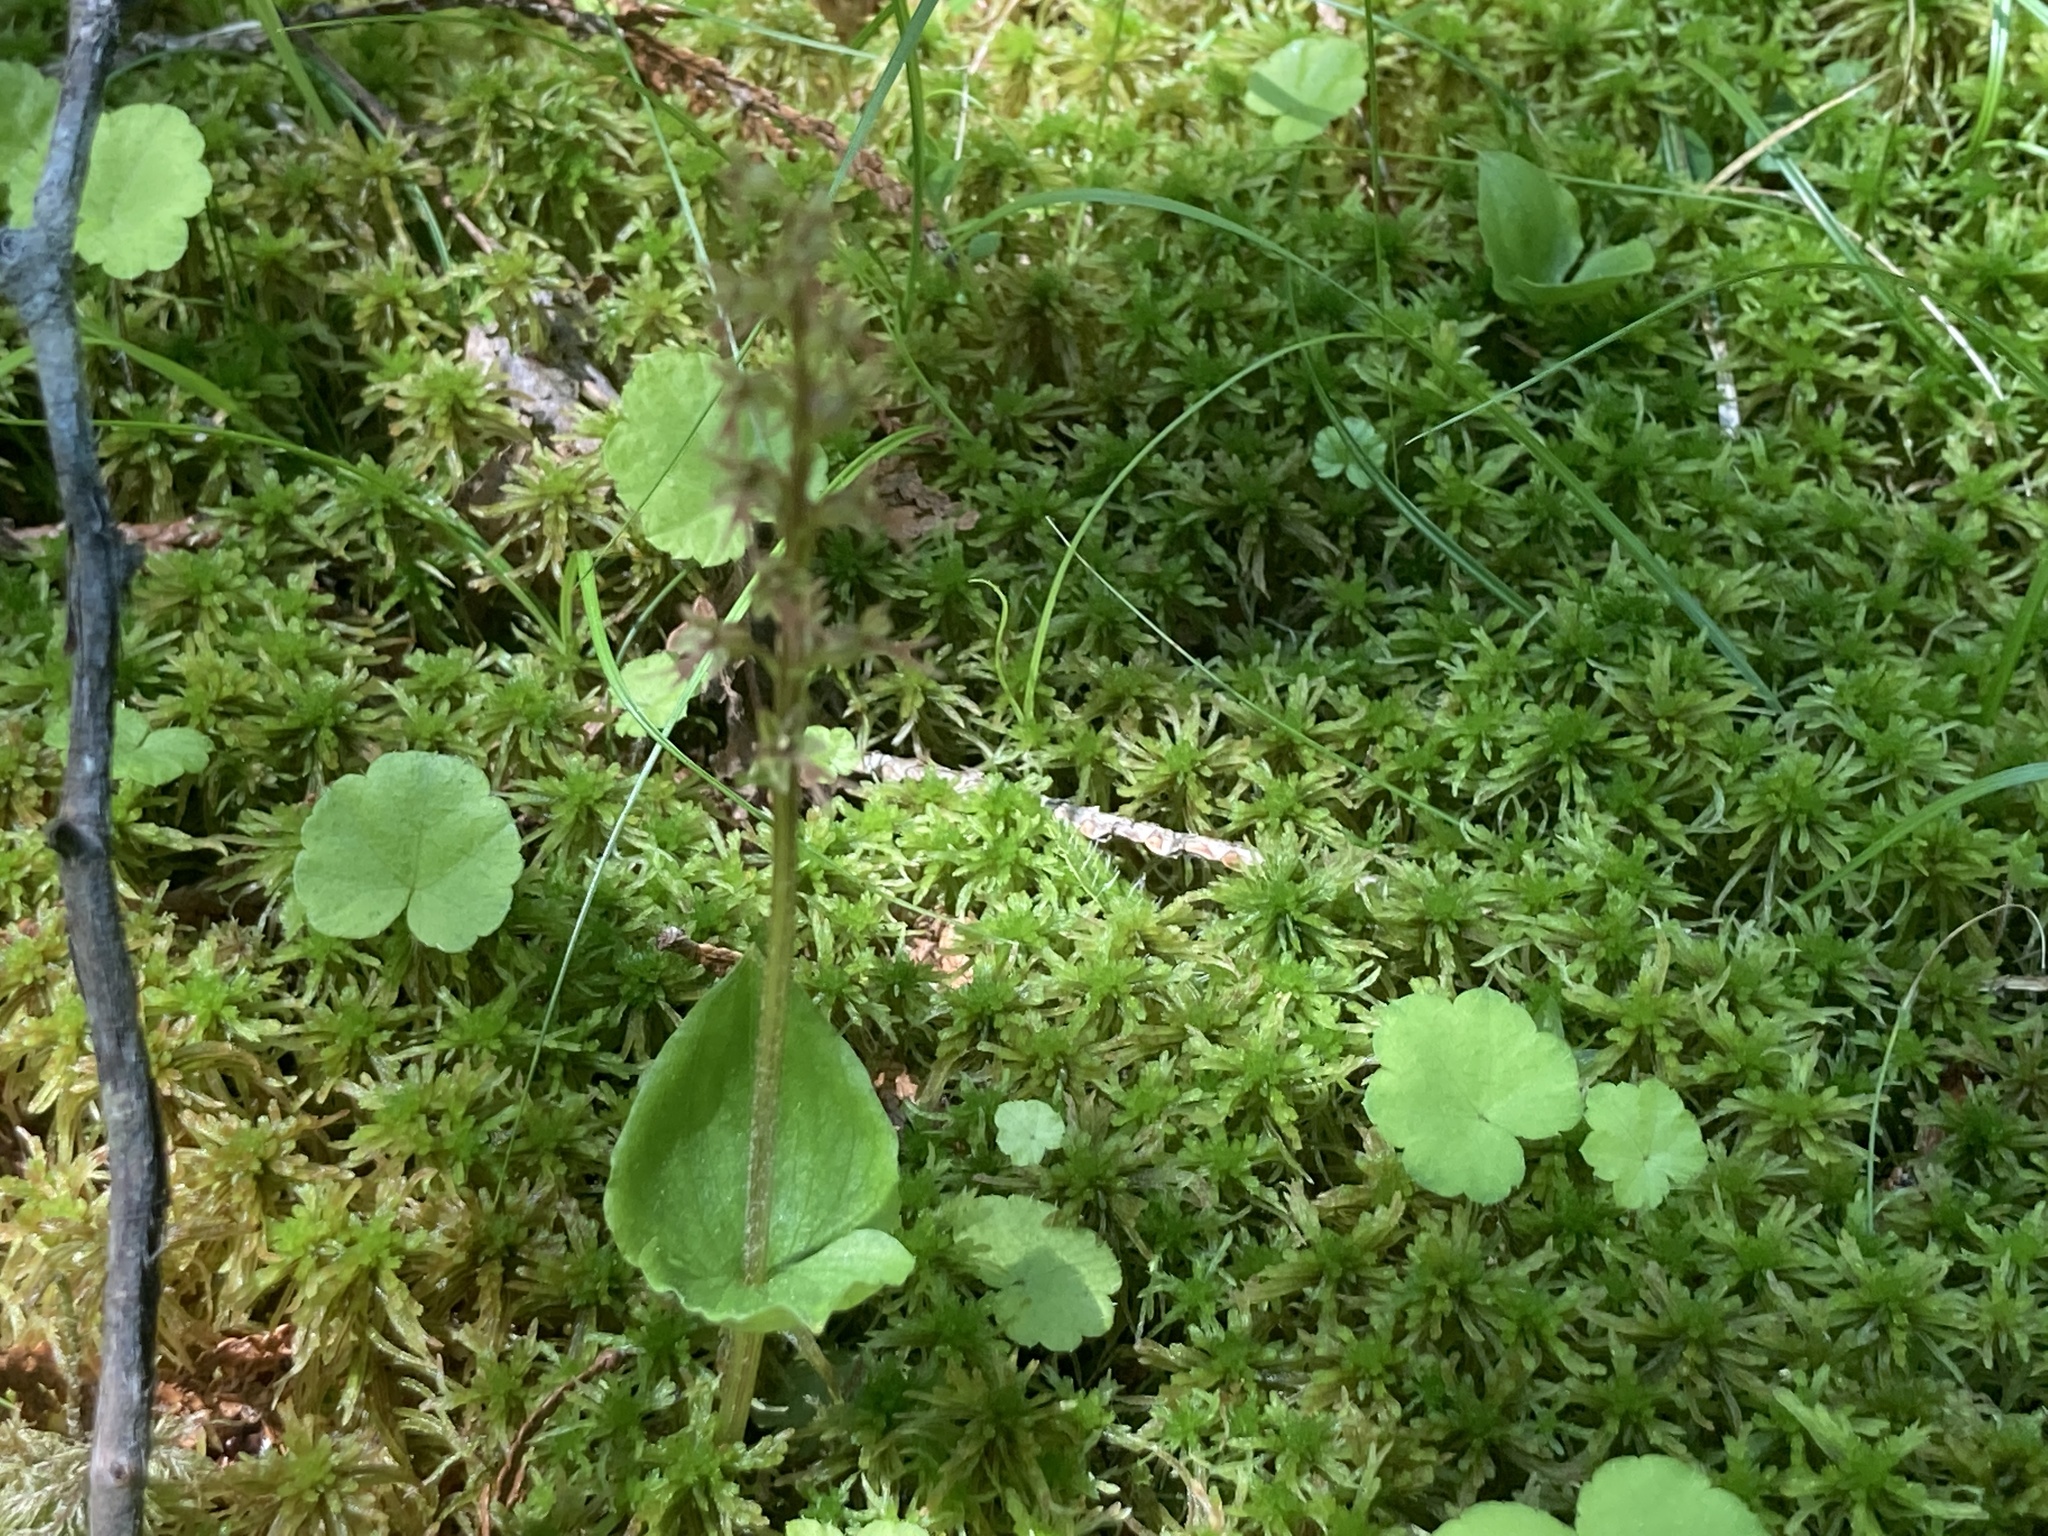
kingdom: Plantae
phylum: Tracheophyta
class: Liliopsida
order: Asparagales
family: Orchidaceae
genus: Neottia
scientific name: Neottia cordata
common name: Lesser twayblade
